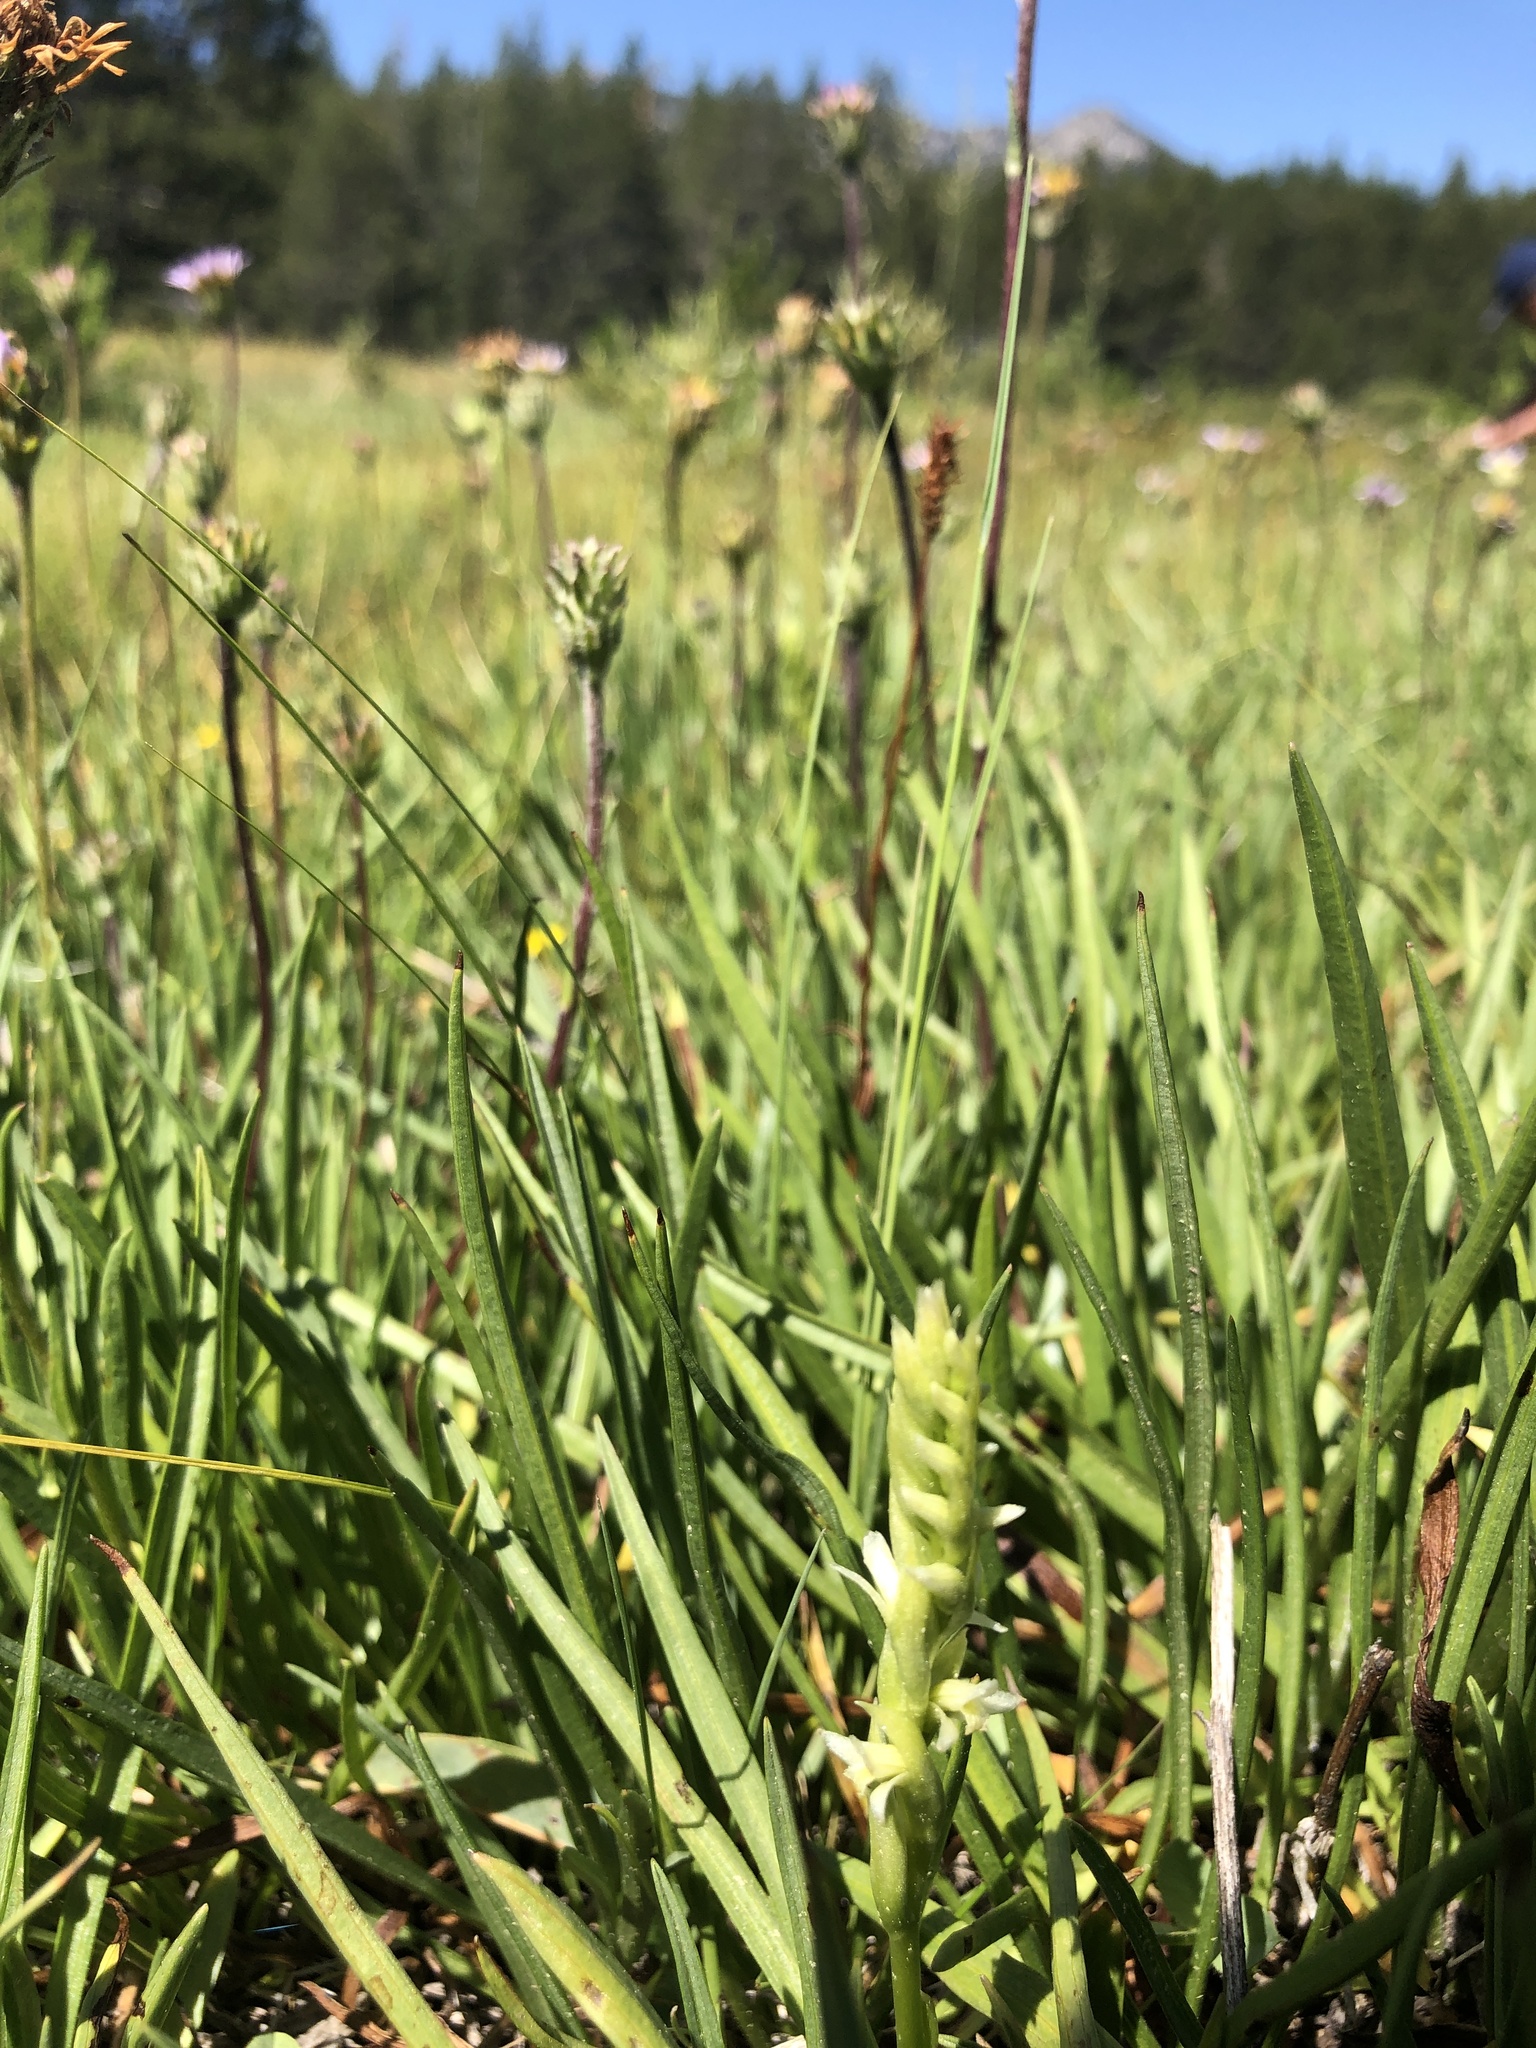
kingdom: Plantae
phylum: Tracheophyta
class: Liliopsida
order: Asparagales
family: Orchidaceae
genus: Spiranthes
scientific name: Spiranthes stellata
